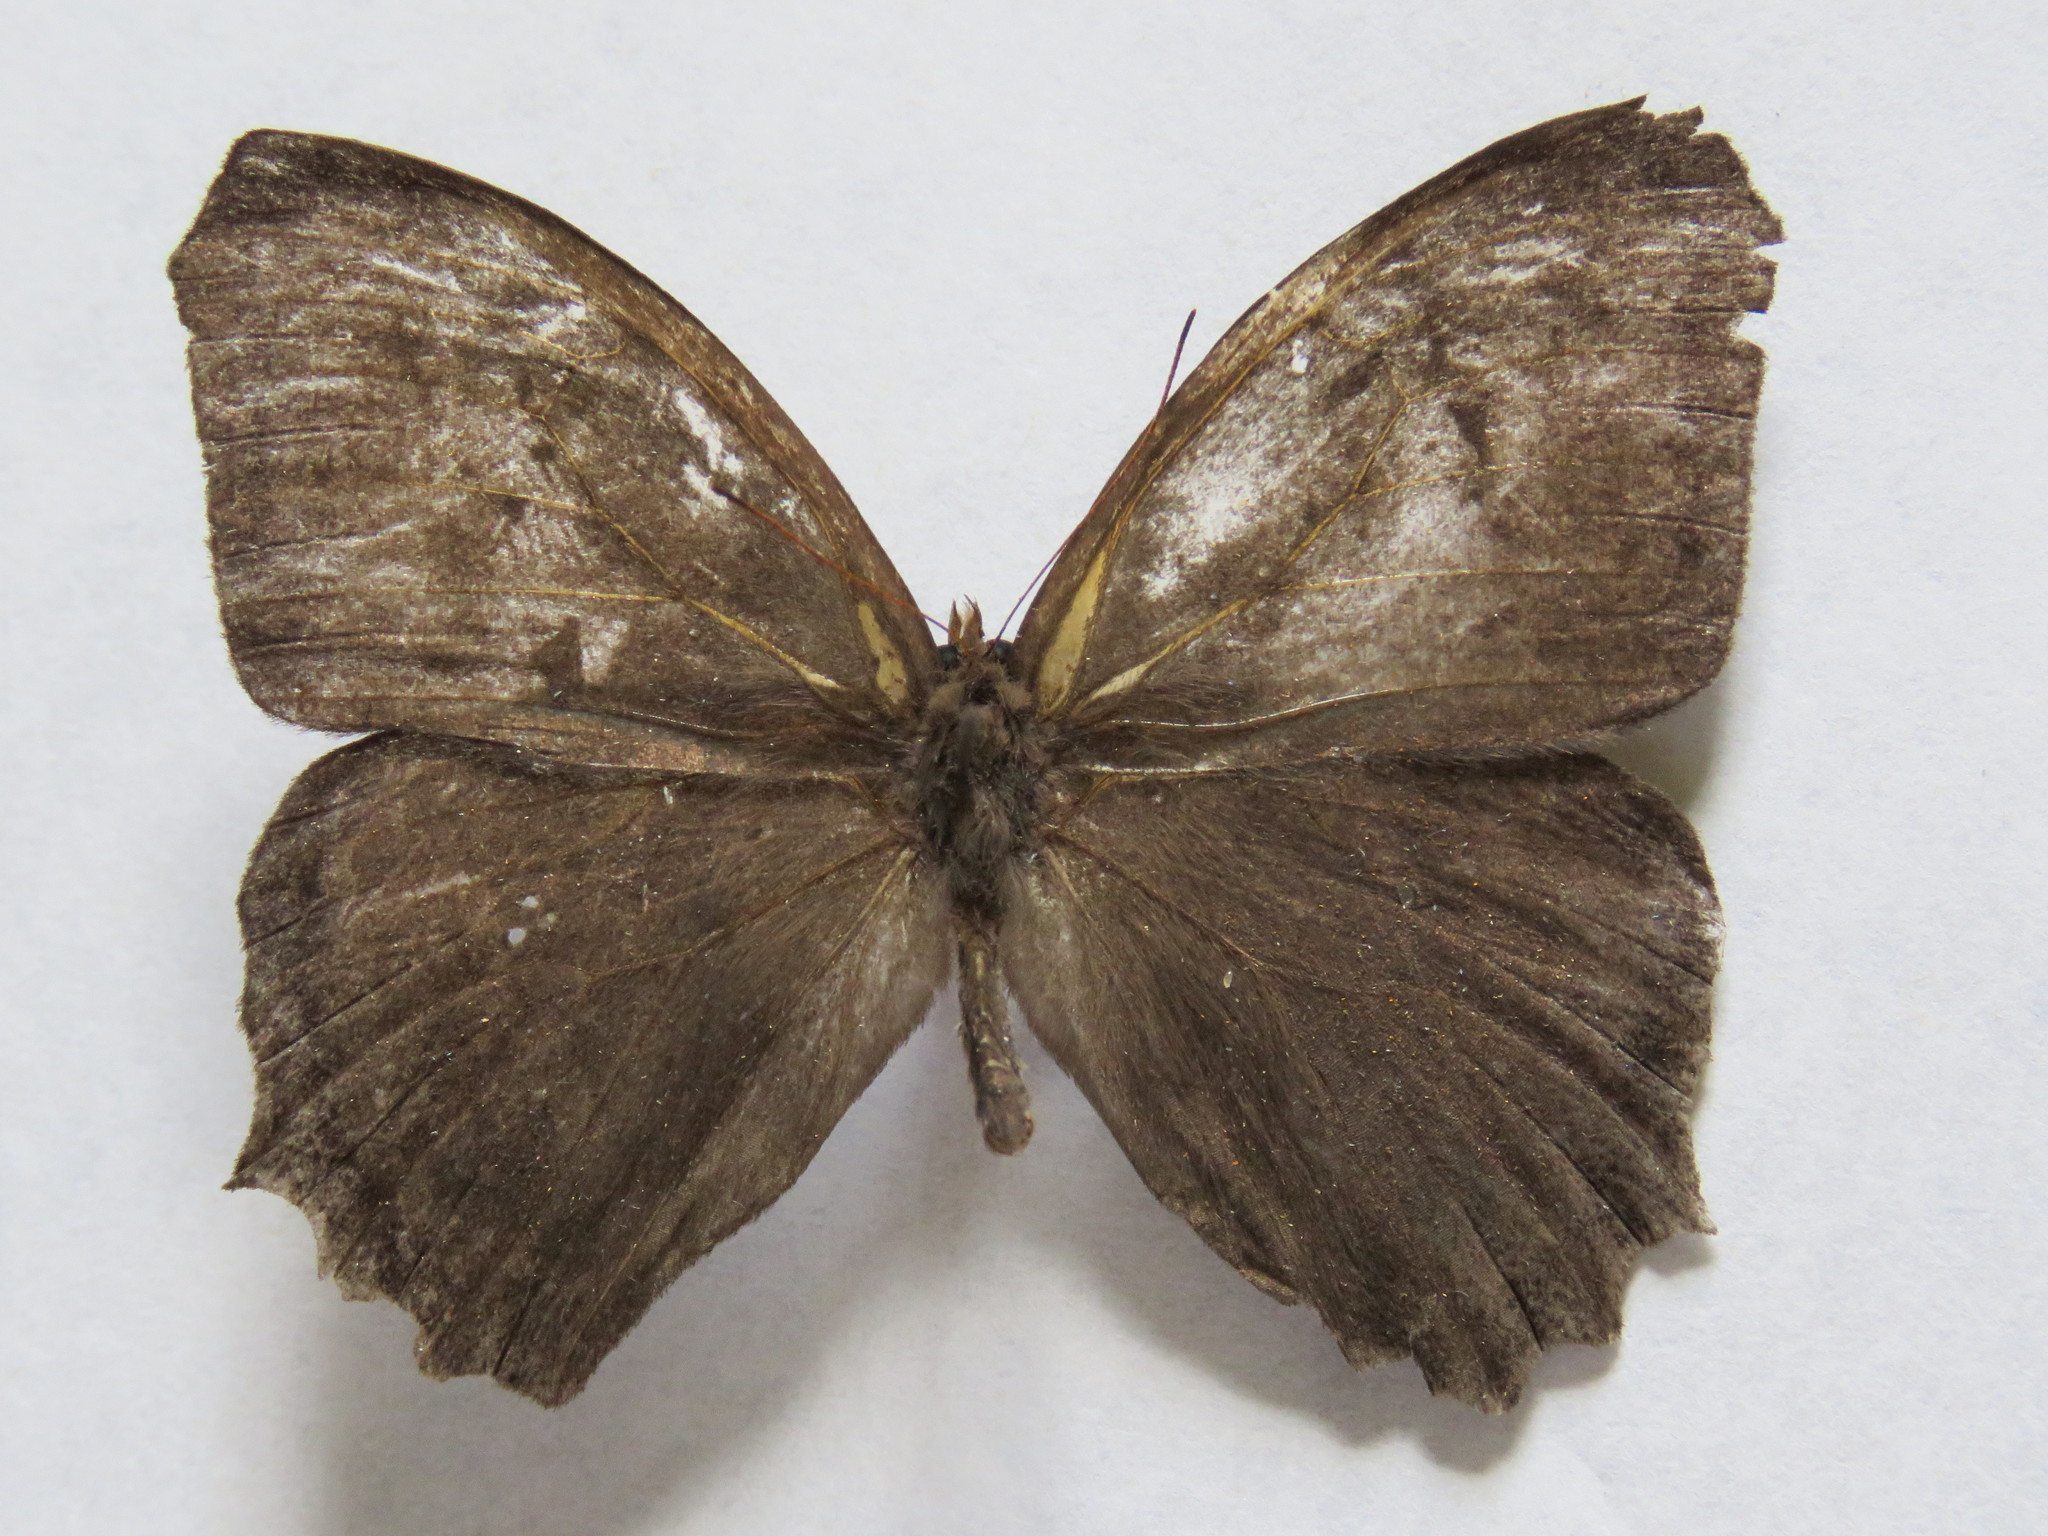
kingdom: Animalia
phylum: Arthropoda
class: Insecta
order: Lepidoptera
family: Nymphalidae
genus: Taygetis
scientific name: Taygetis inconspicua
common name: Inconspicuous satyr
